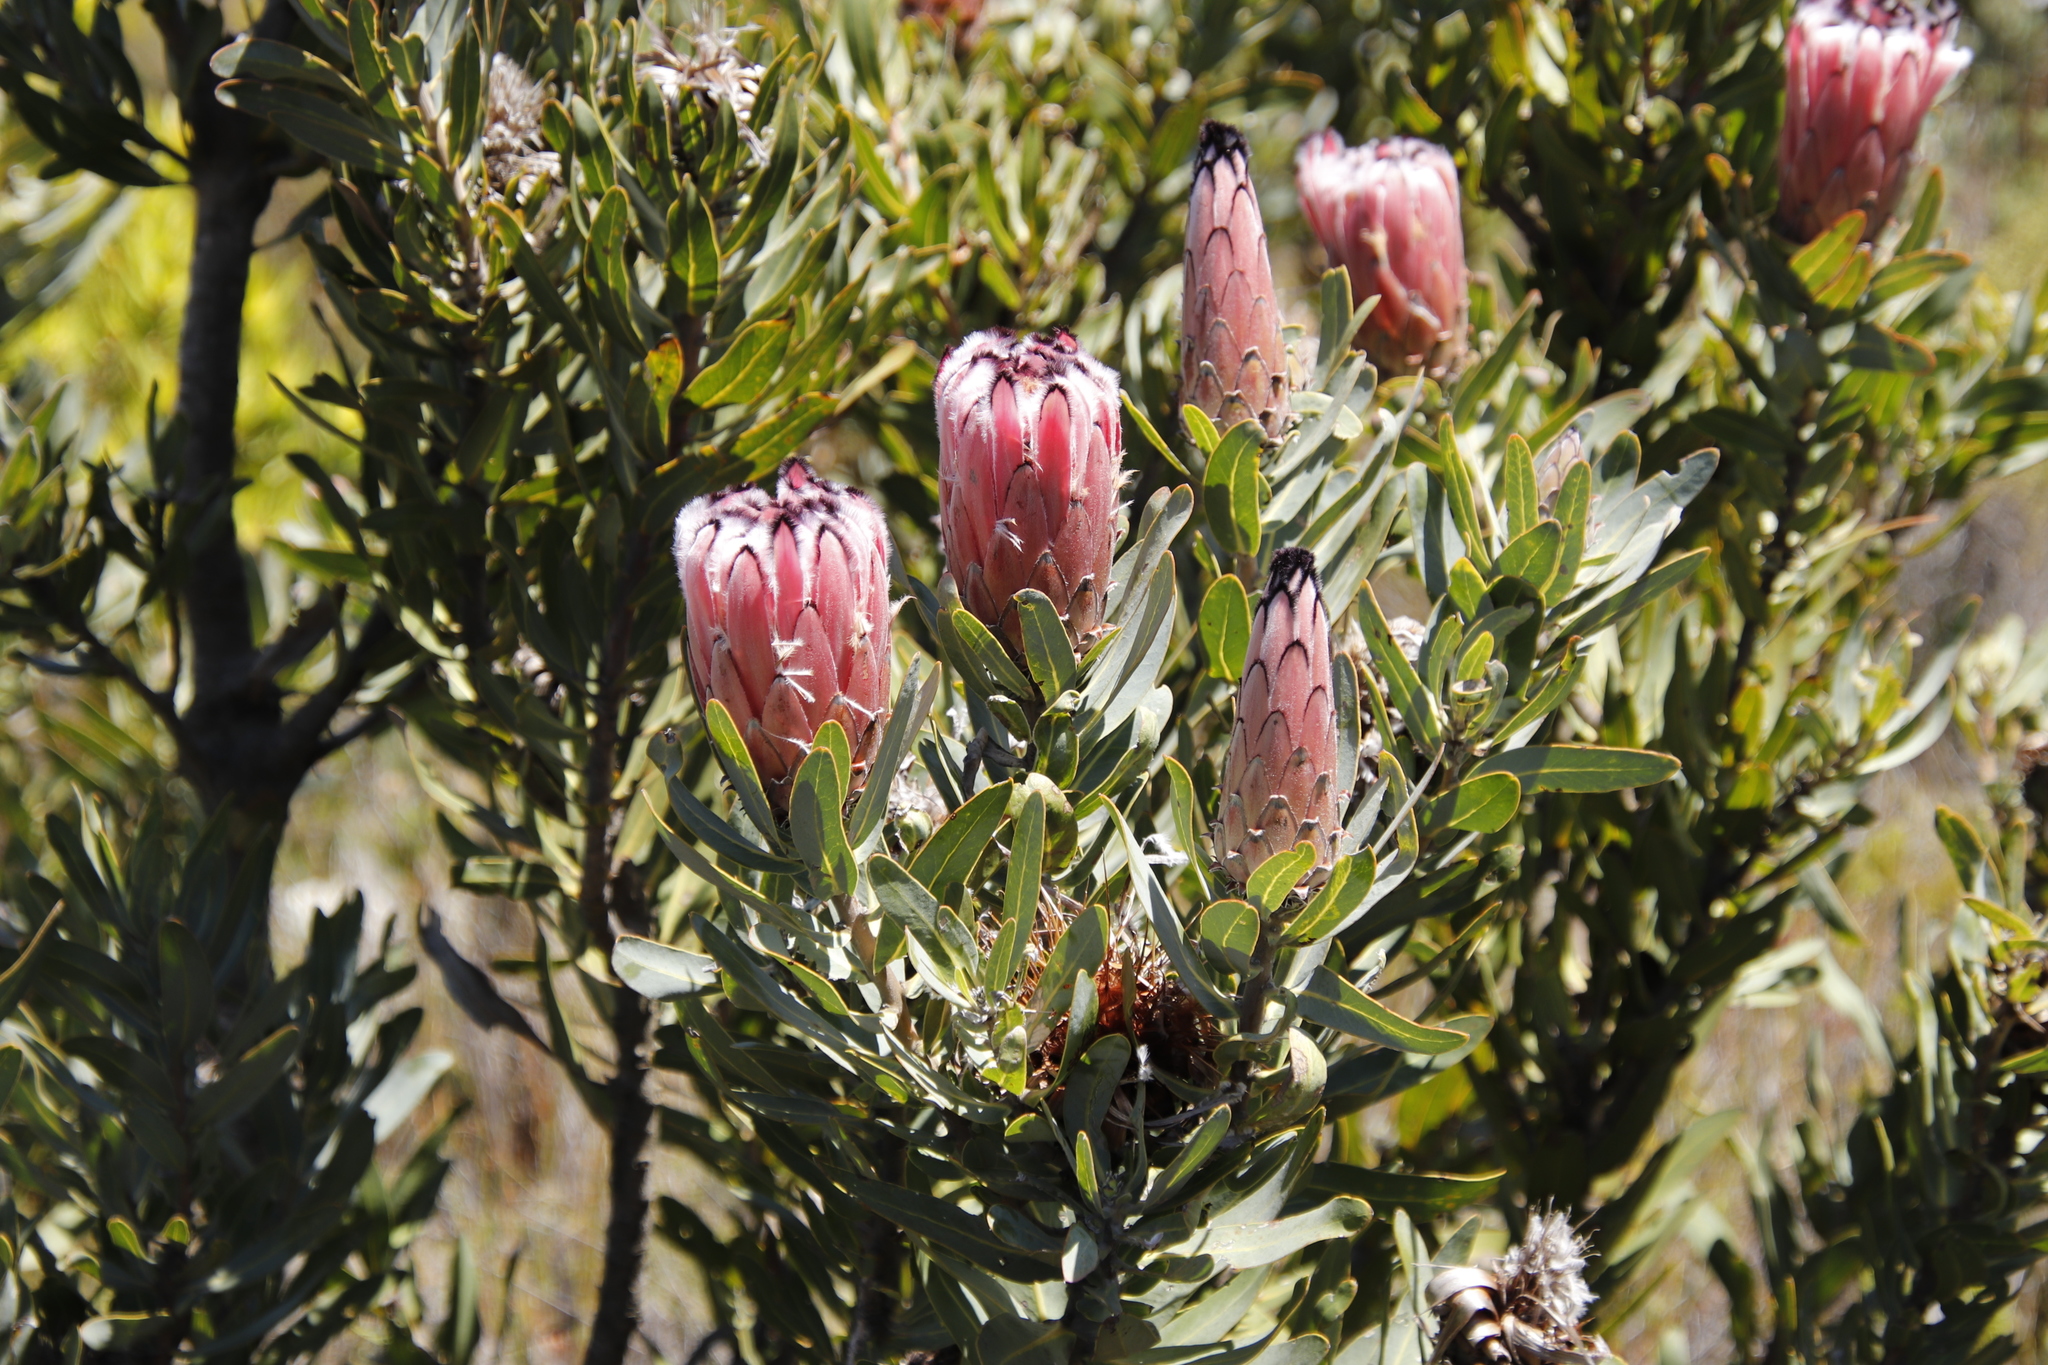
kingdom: Plantae
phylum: Tracheophyta
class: Magnoliopsida
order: Proteales
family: Proteaceae
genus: Protea
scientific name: Protea laurifolia
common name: Grey-leaf sugarbsh
